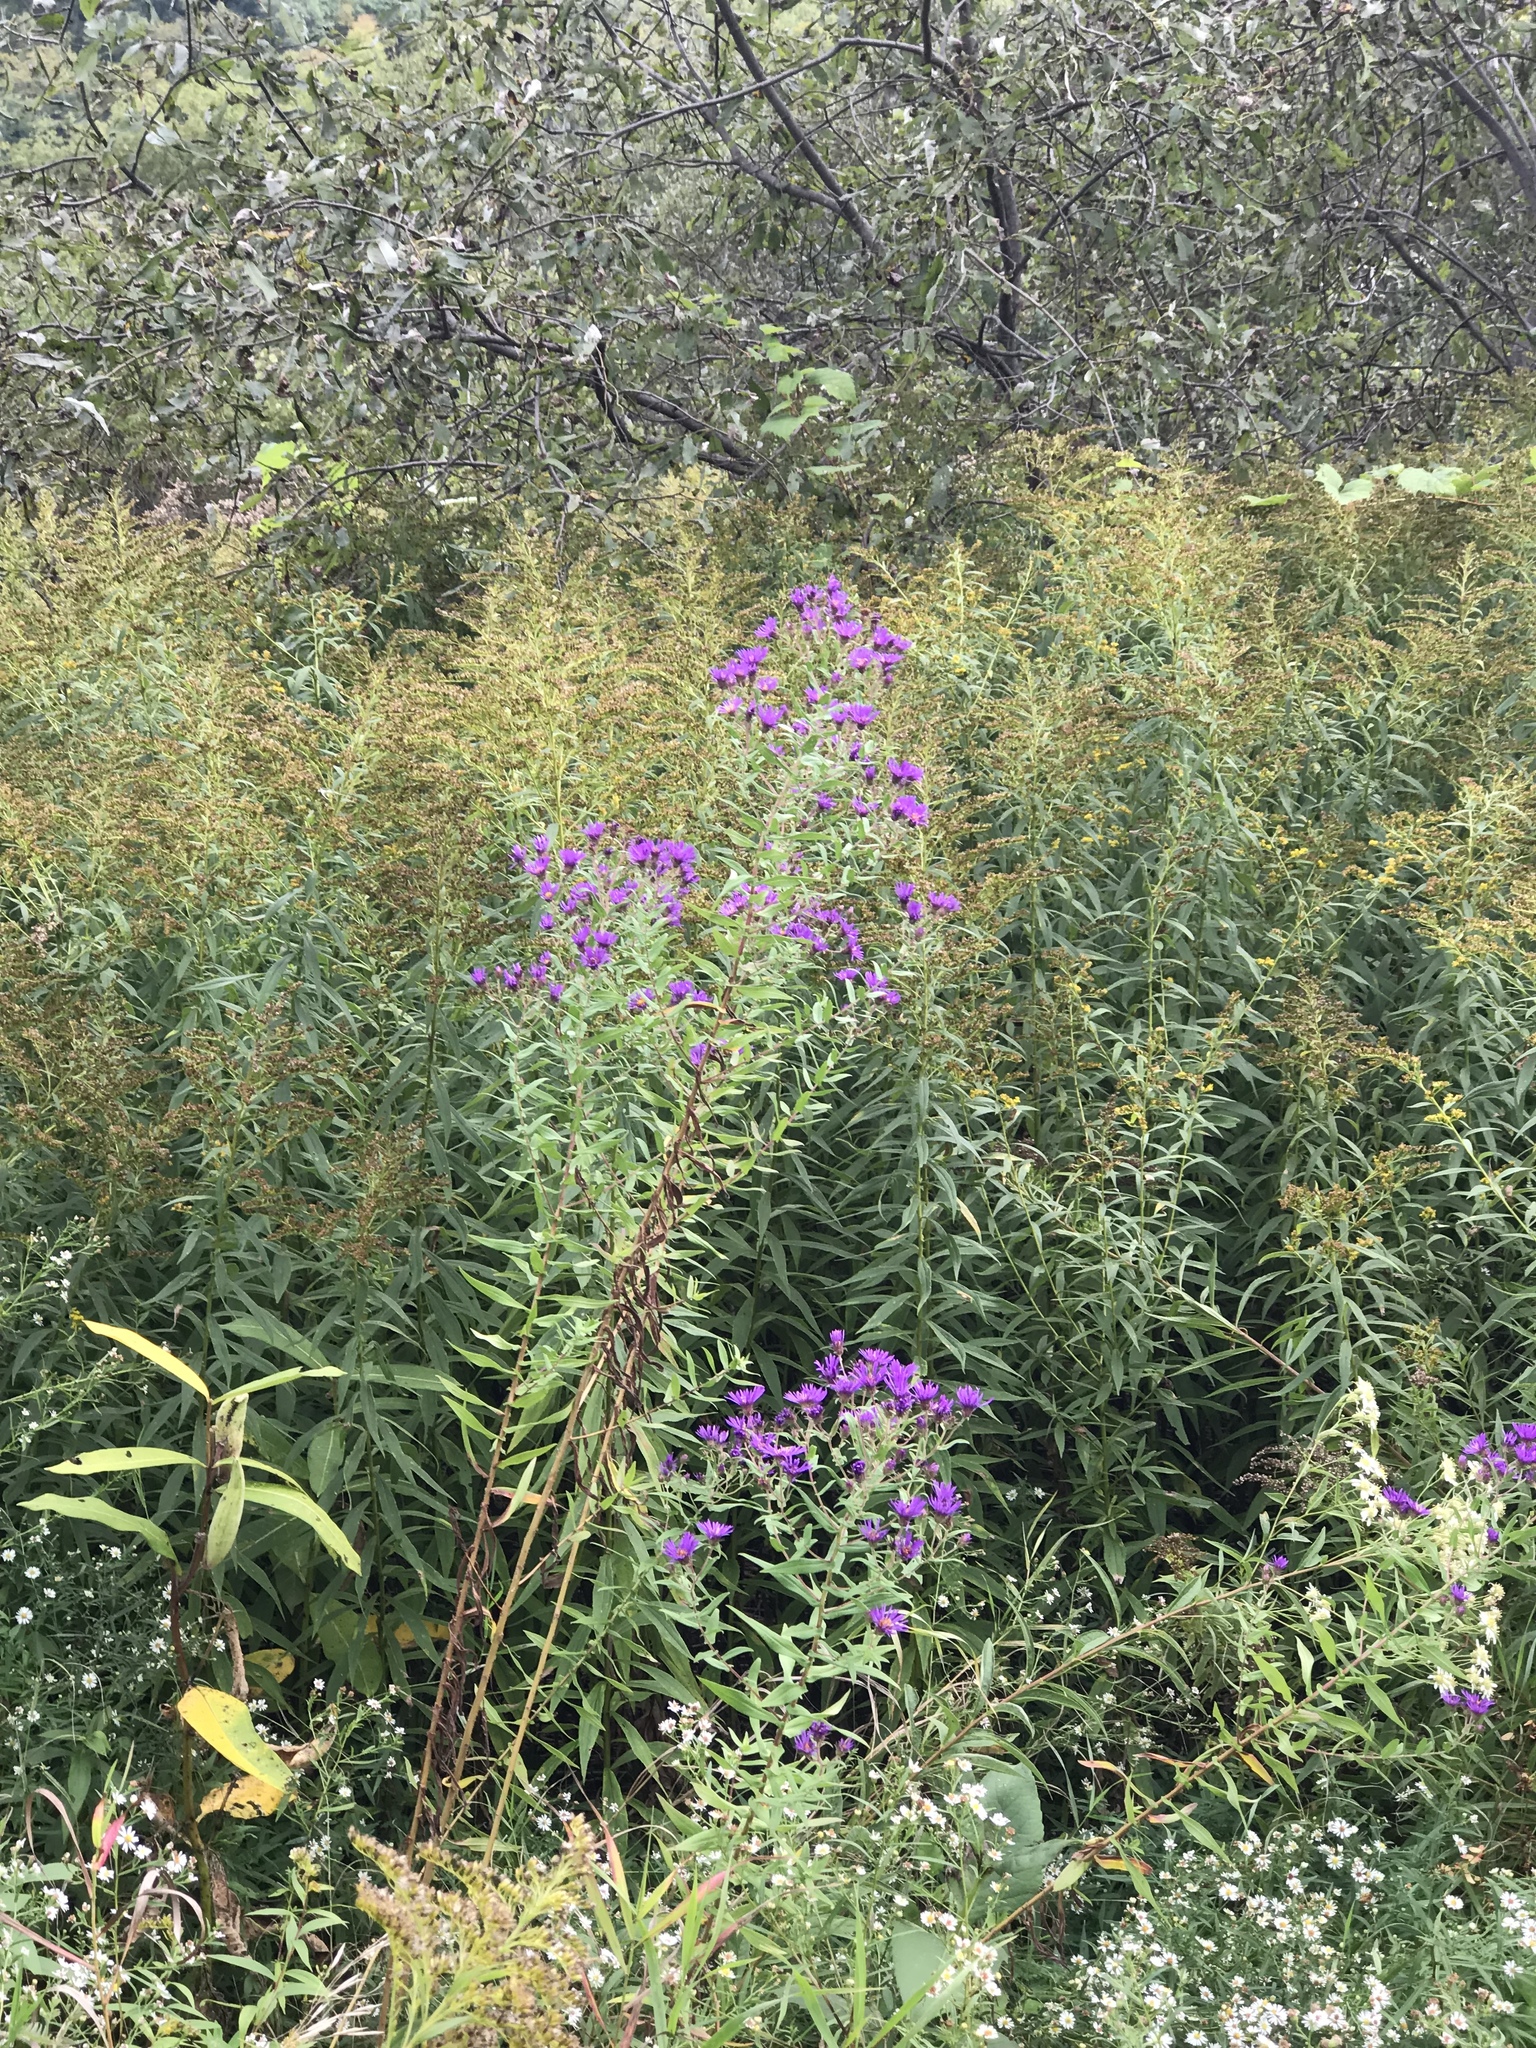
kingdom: Plantae
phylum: Tracheophyta
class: Magnoliopsida
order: Asterales
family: Asteraceae
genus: Symphyotrichum
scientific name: Symphyotrichum novae-angliae
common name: Michaelmas daisy
